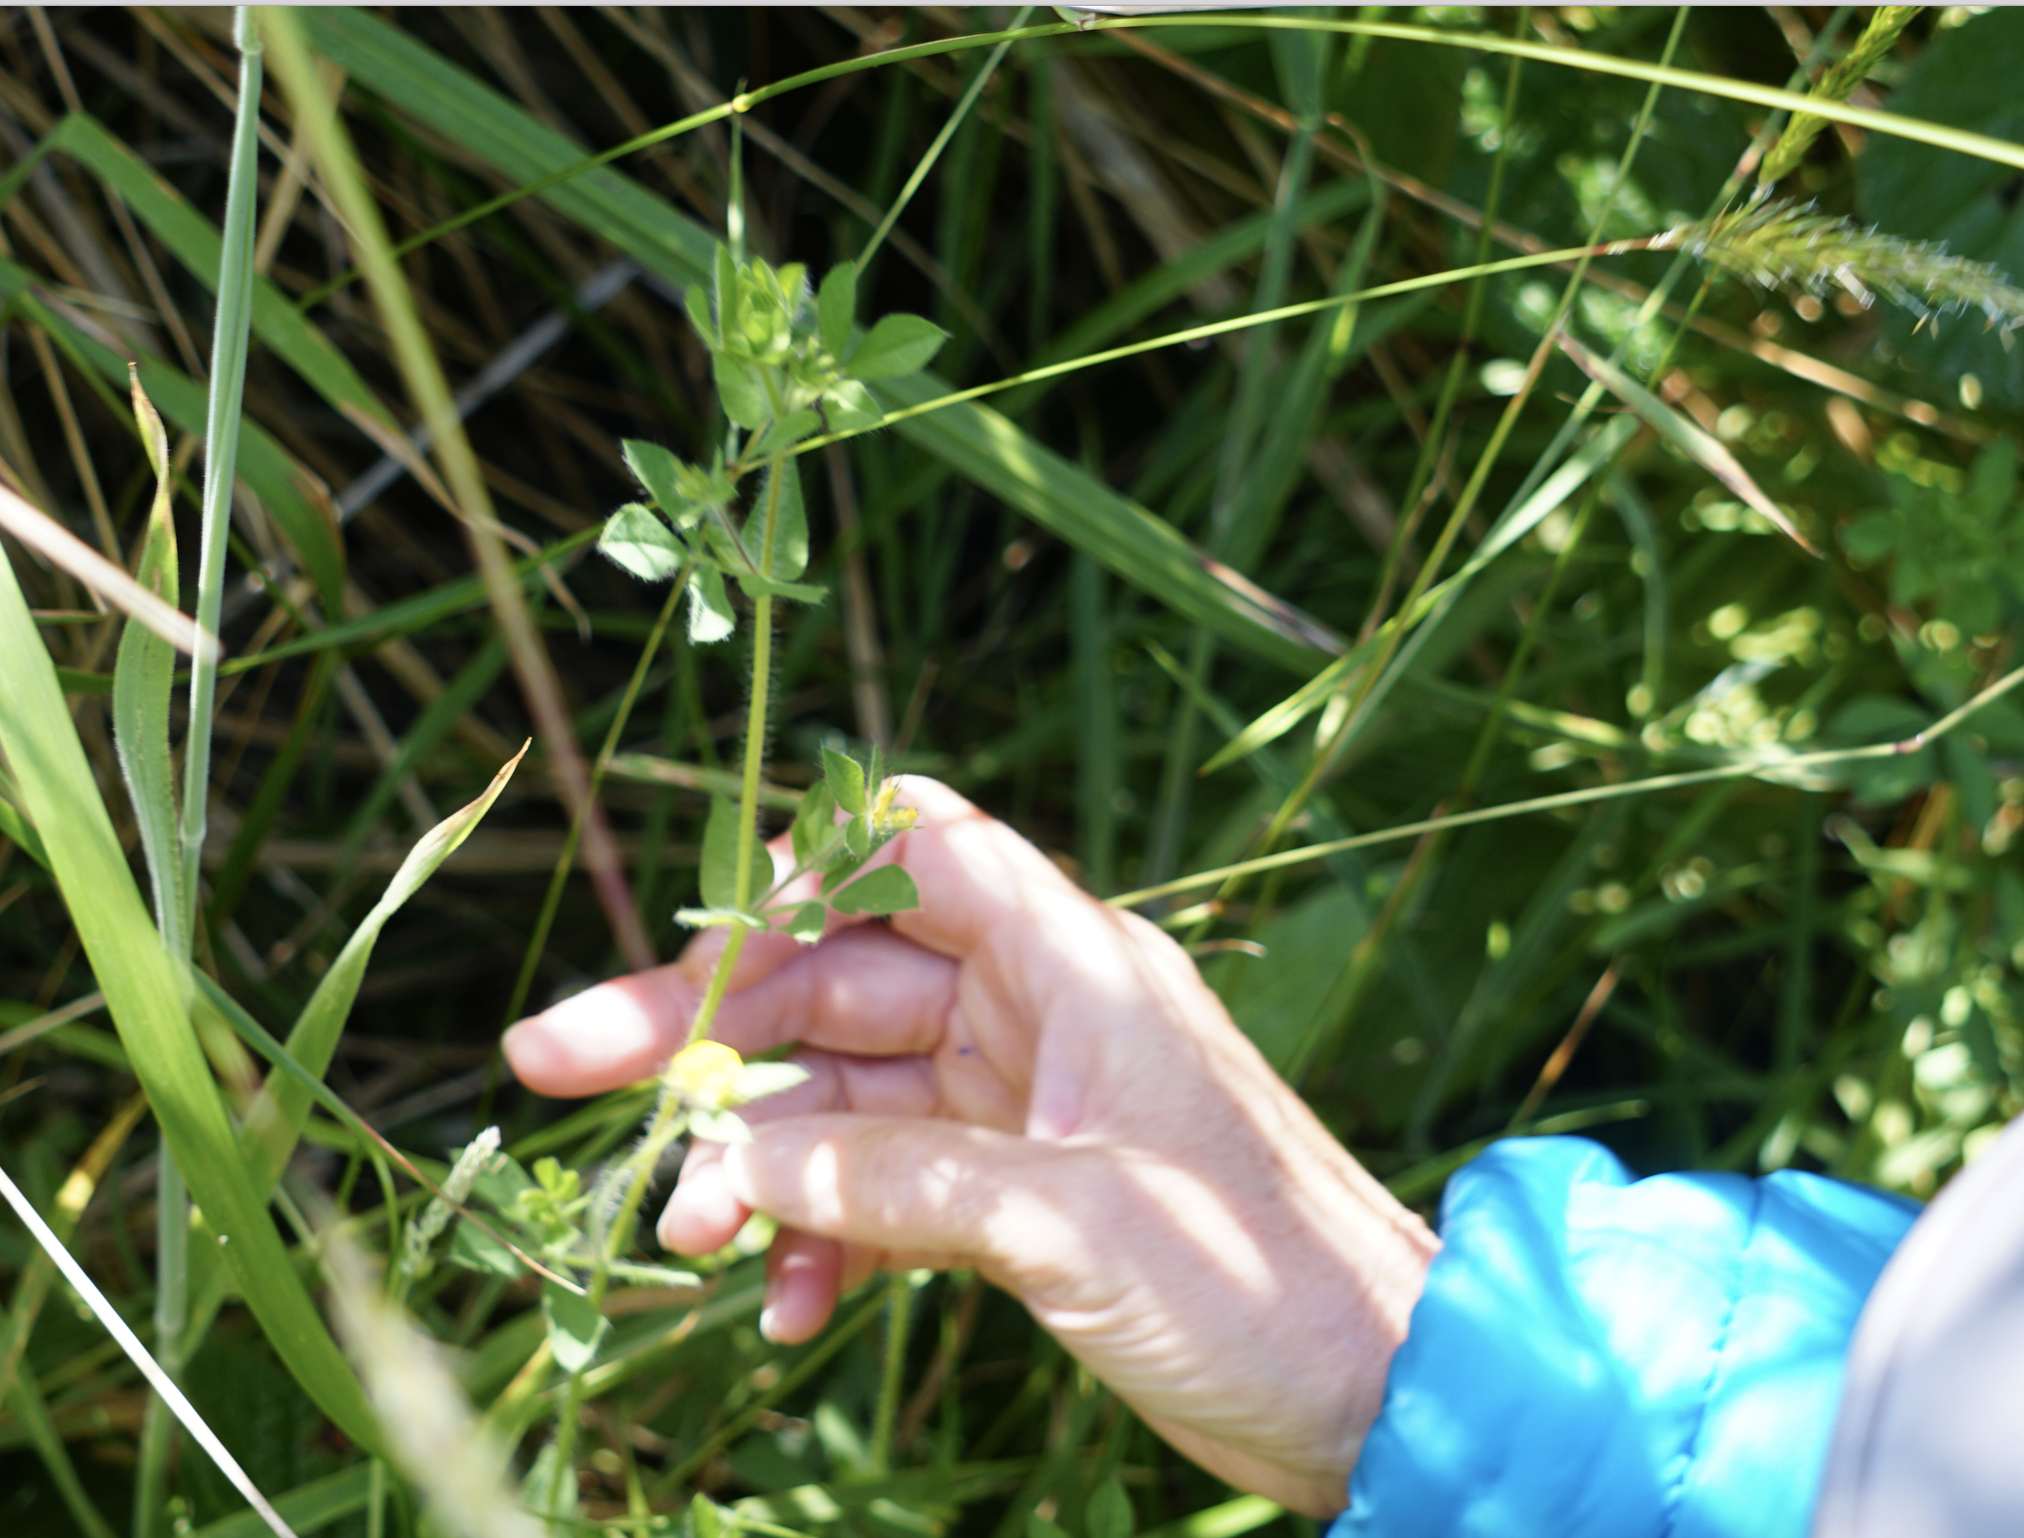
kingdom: Plantae
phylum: Tracheophyta
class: Magnoliopsida
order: Fabales
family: Fabaceae
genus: Lotus
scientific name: Lotus angustissimus
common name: Slender bird's-foot trefoil
